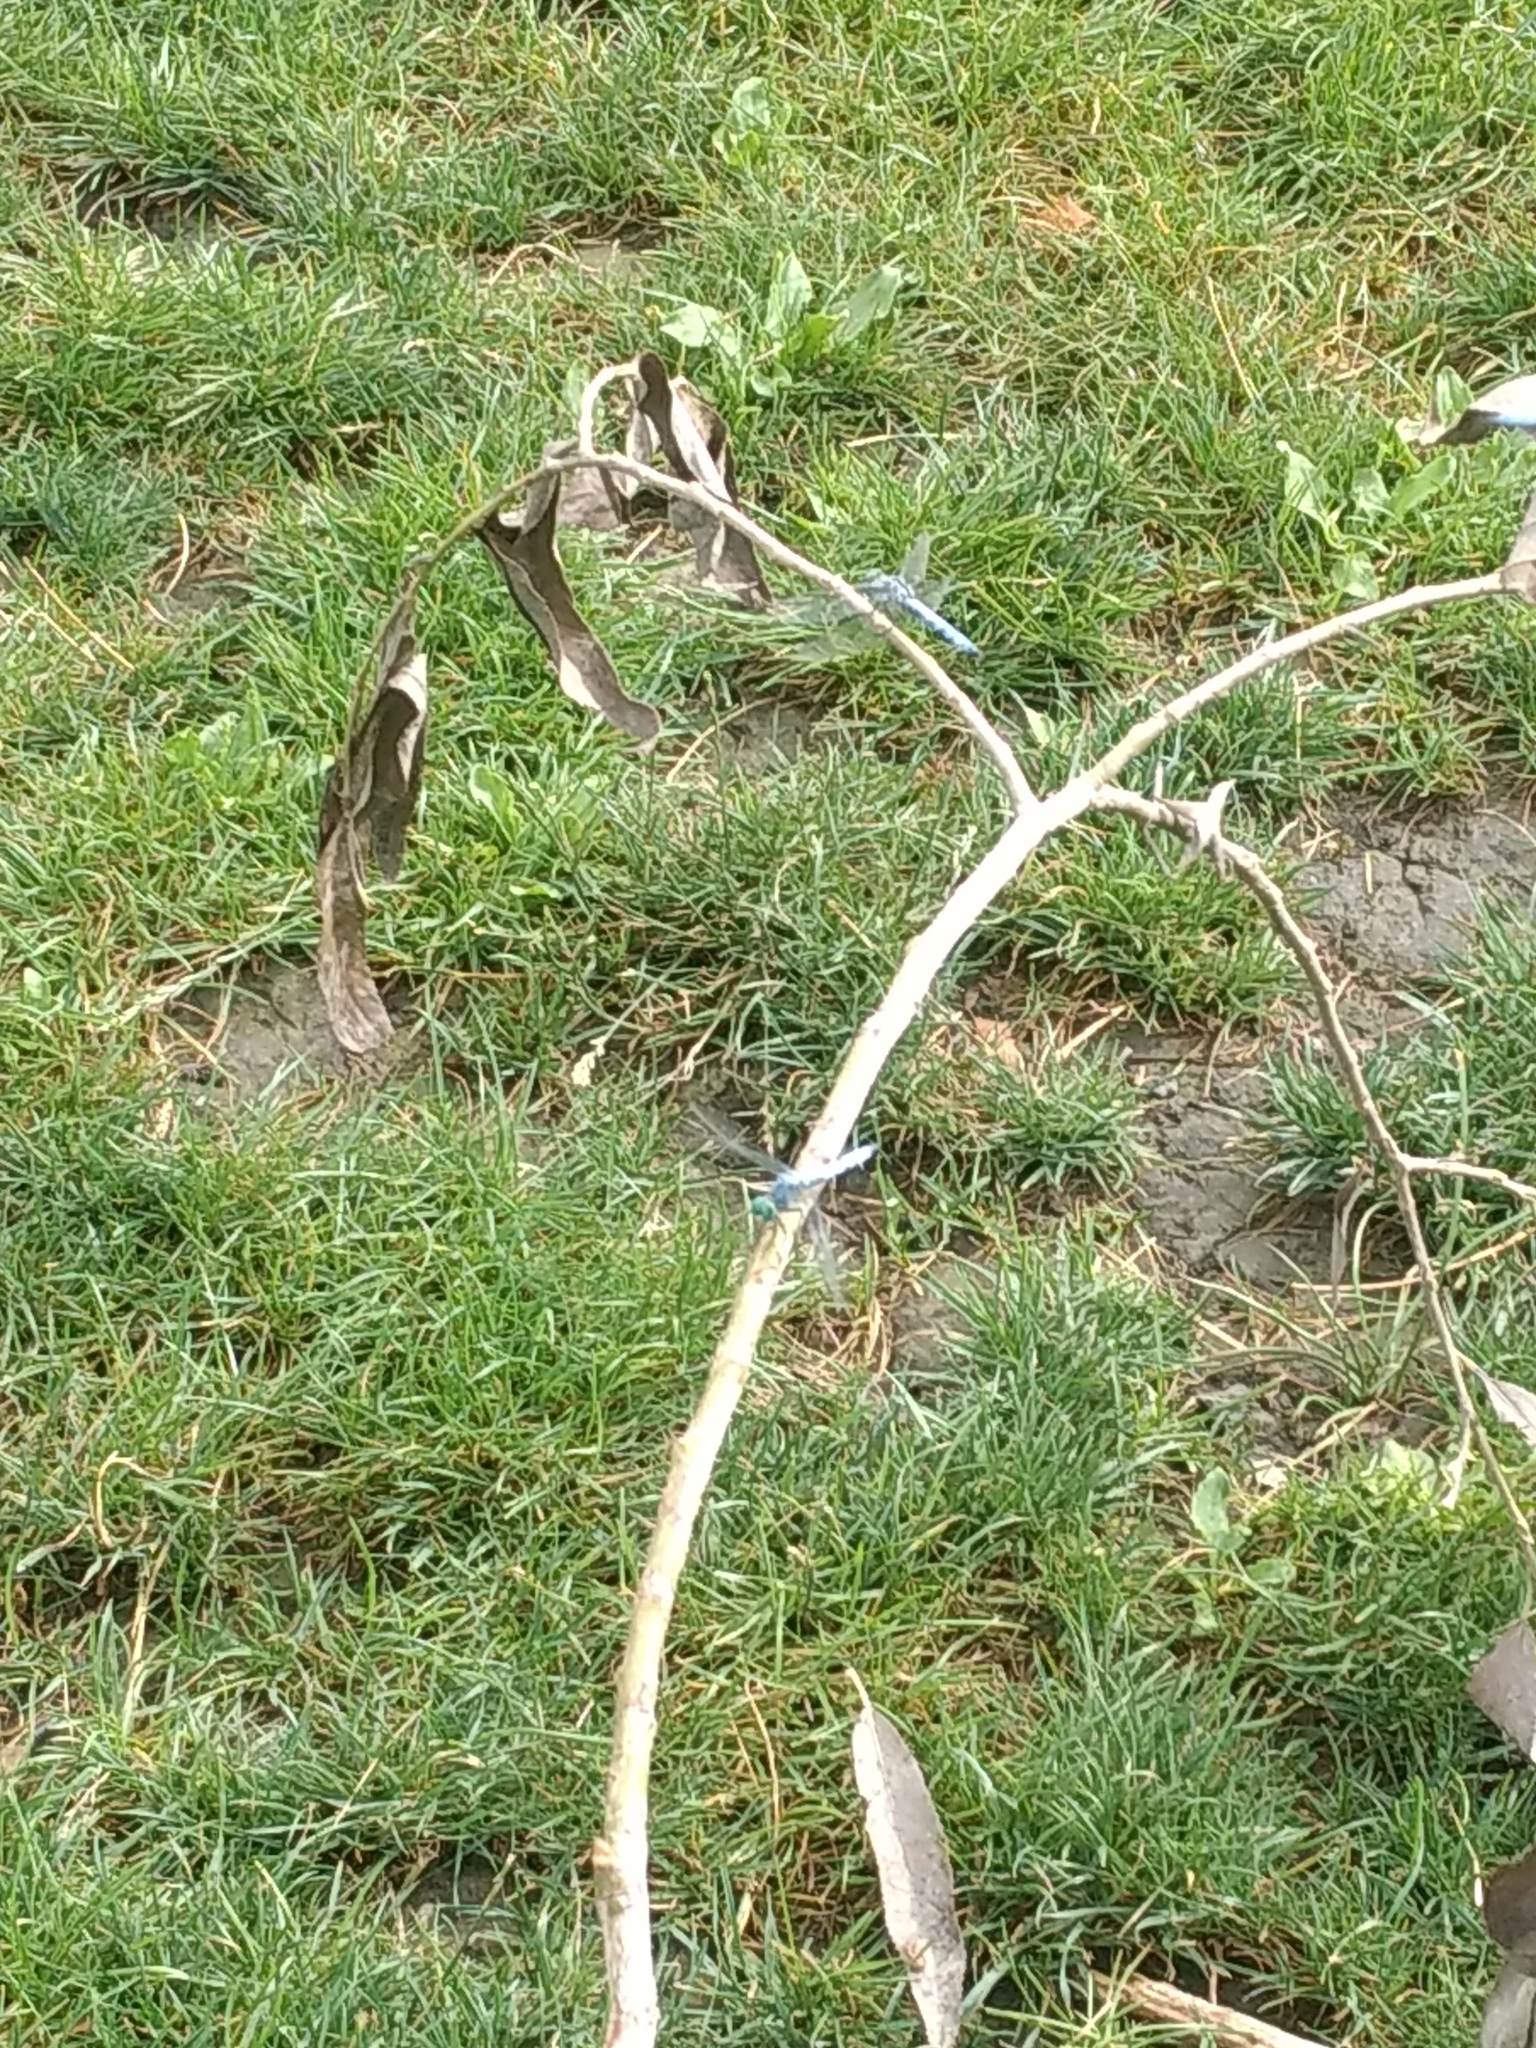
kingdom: Animalia
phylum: Arthropoda
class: Insecta
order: Odonata
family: Libellulidae
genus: Pachydiplax
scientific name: Pachydiplax longipennis
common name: Blue dasher
